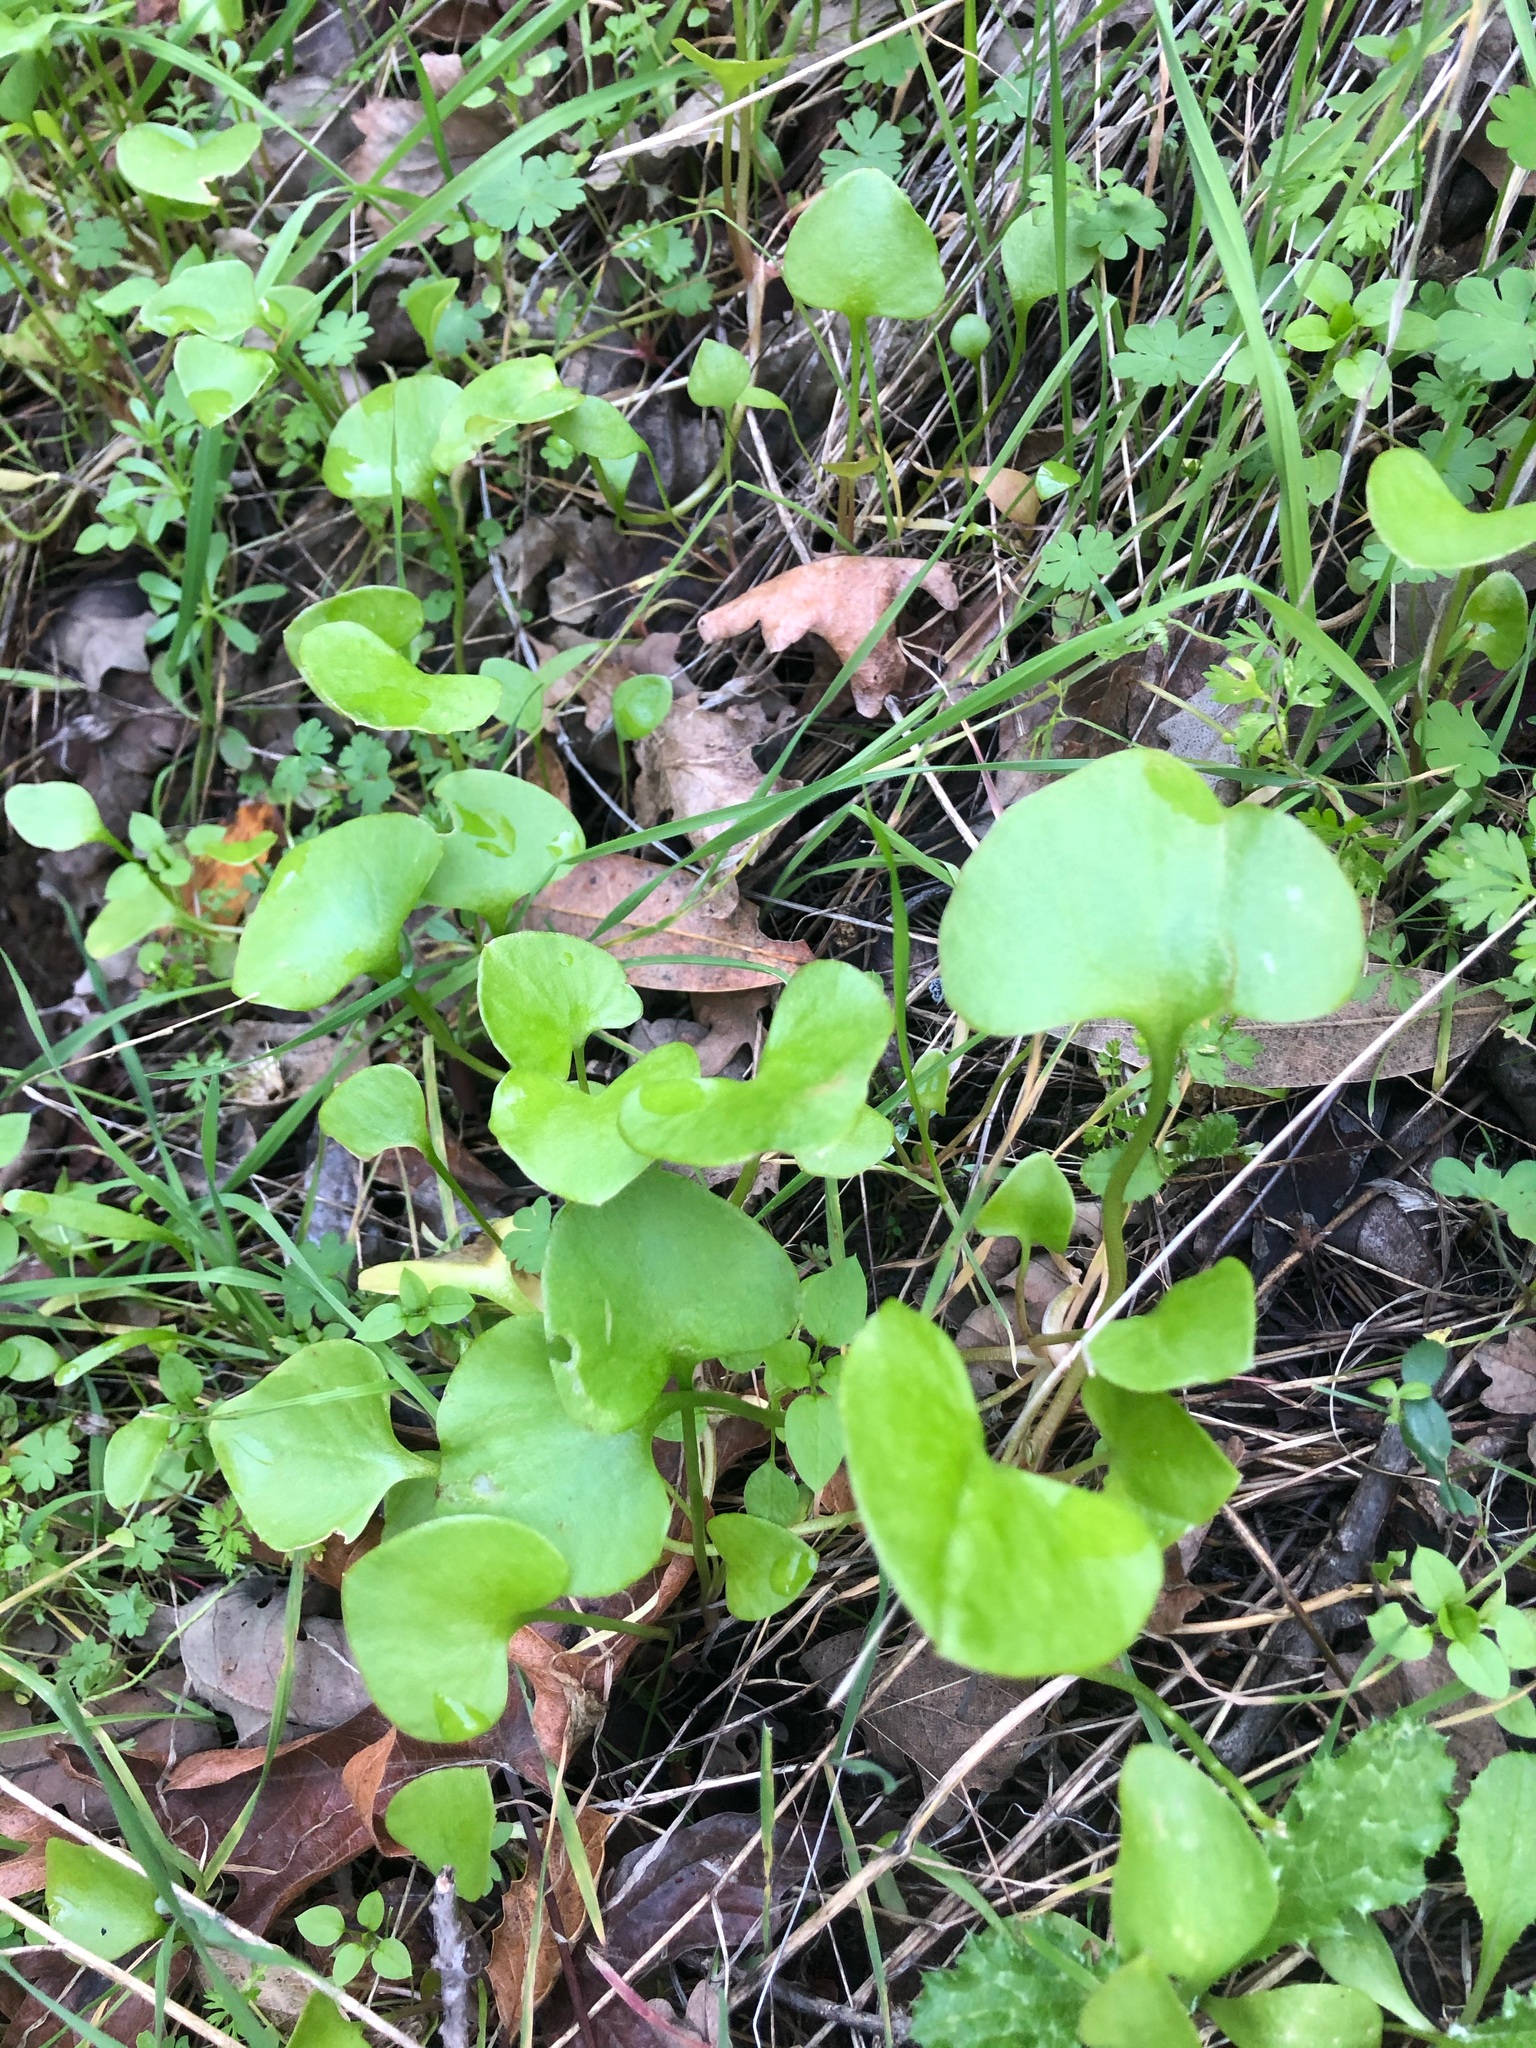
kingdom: Plantae
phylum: Tracheophyta
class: Magnoliopsida
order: Caryophyllales
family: Montiaceae
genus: Claytonia
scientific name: Claytonia perfoliata
